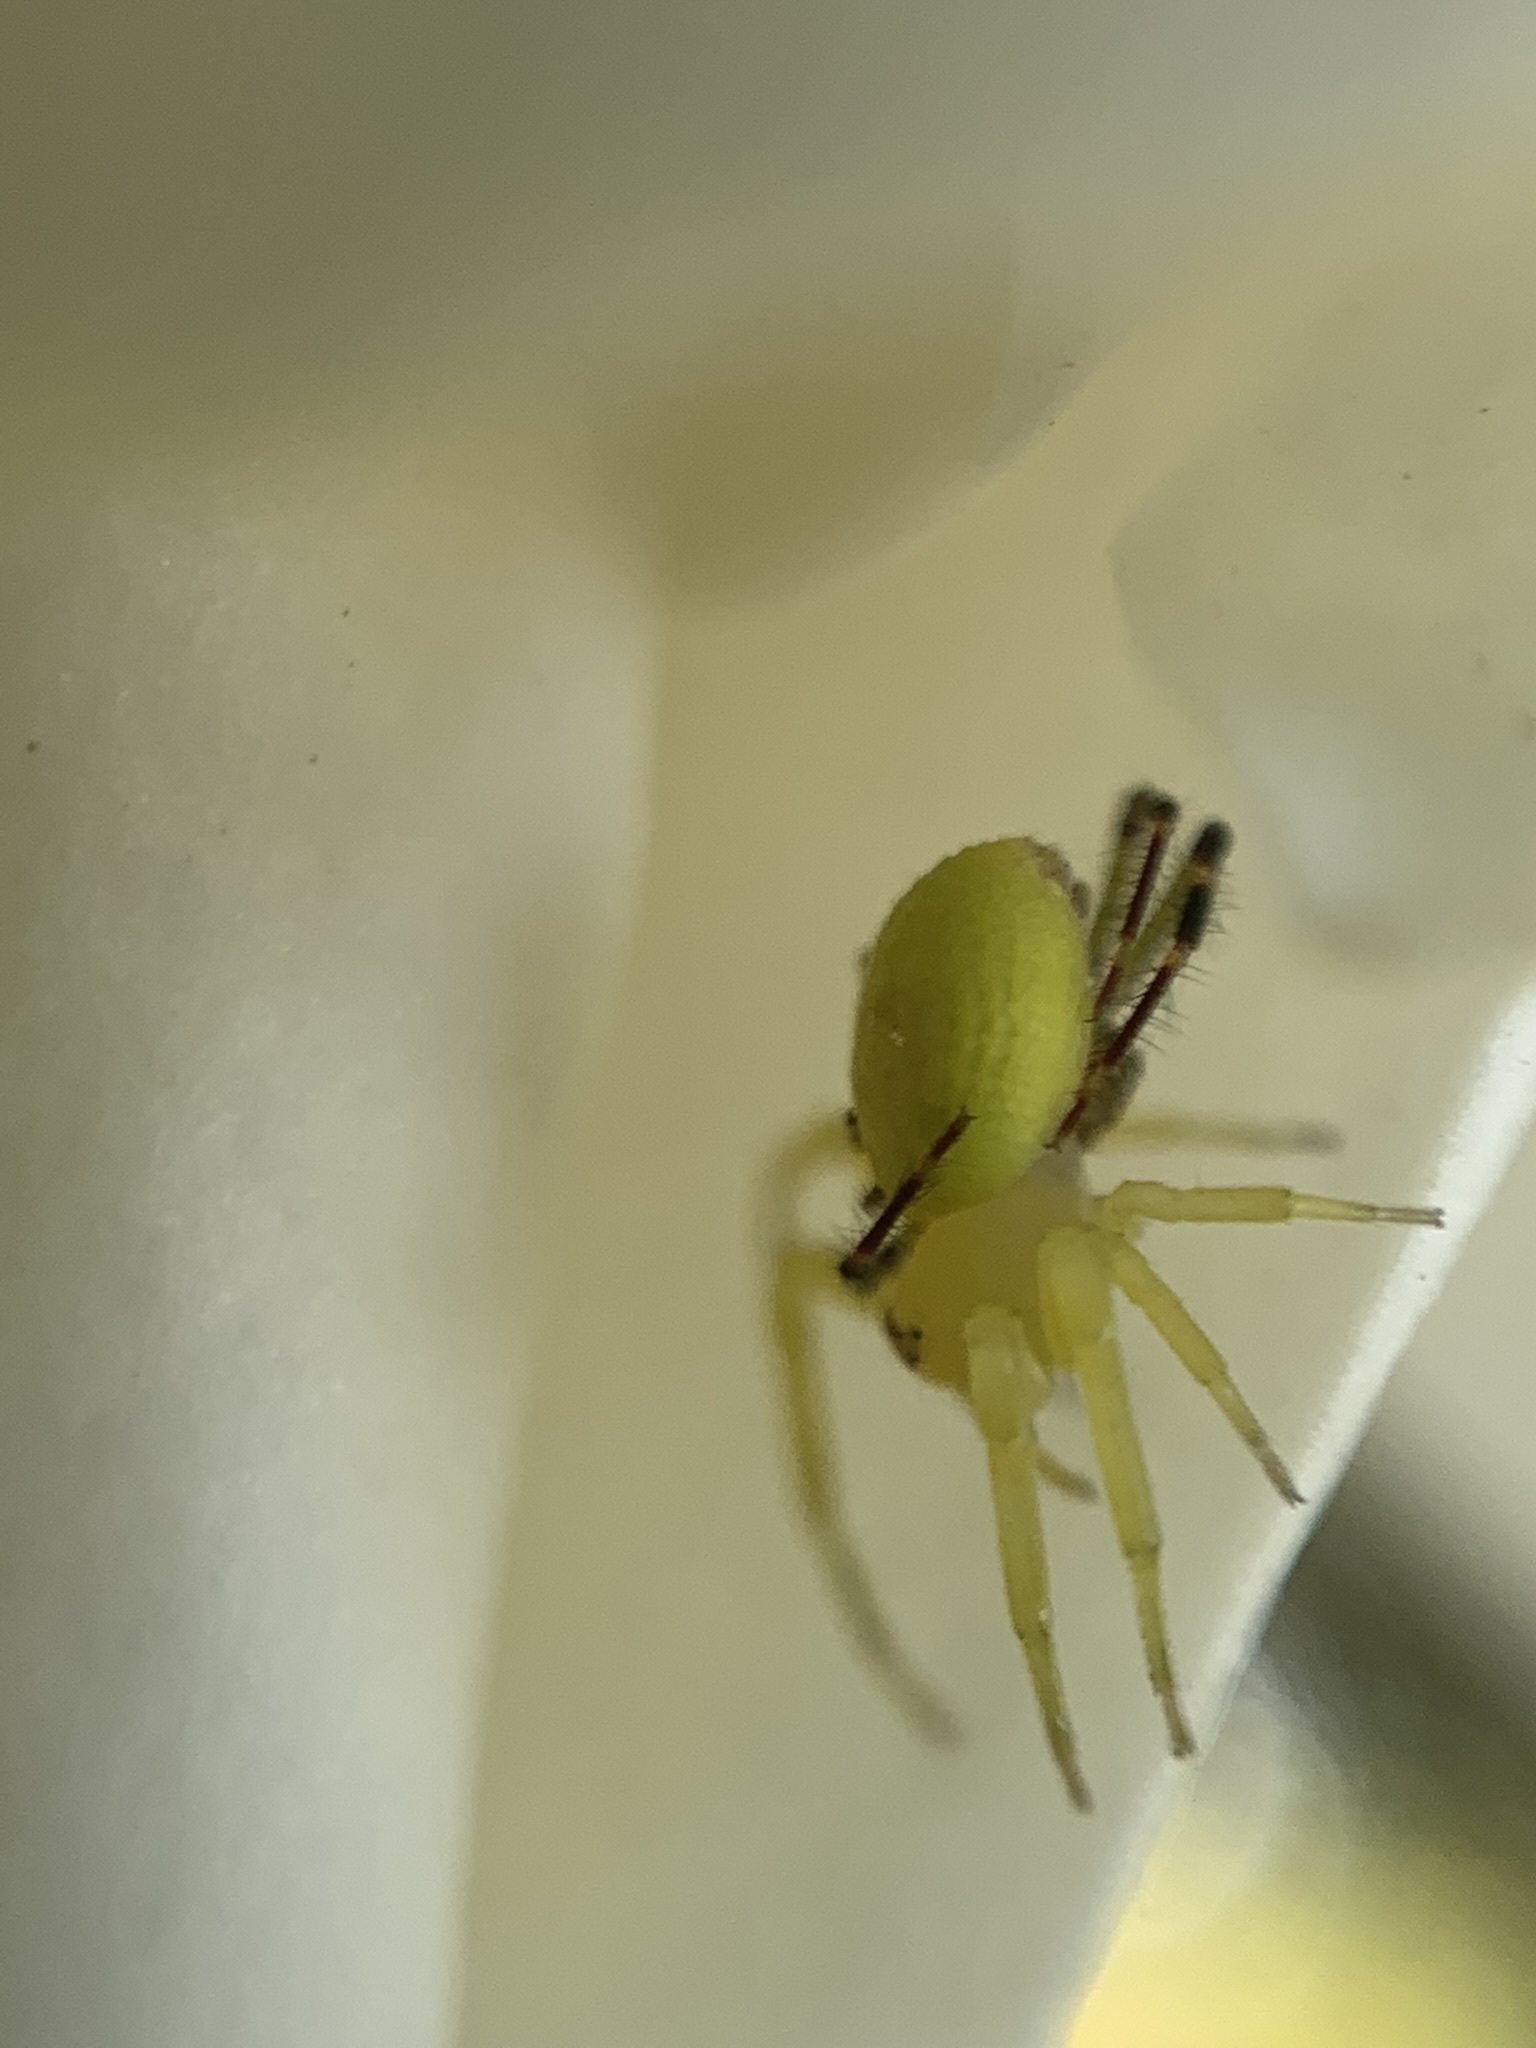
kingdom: Animalia
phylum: Arthropoda
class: Arachnida
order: Araneae
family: Thomisidae
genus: Misumenops
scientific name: Misumenops
